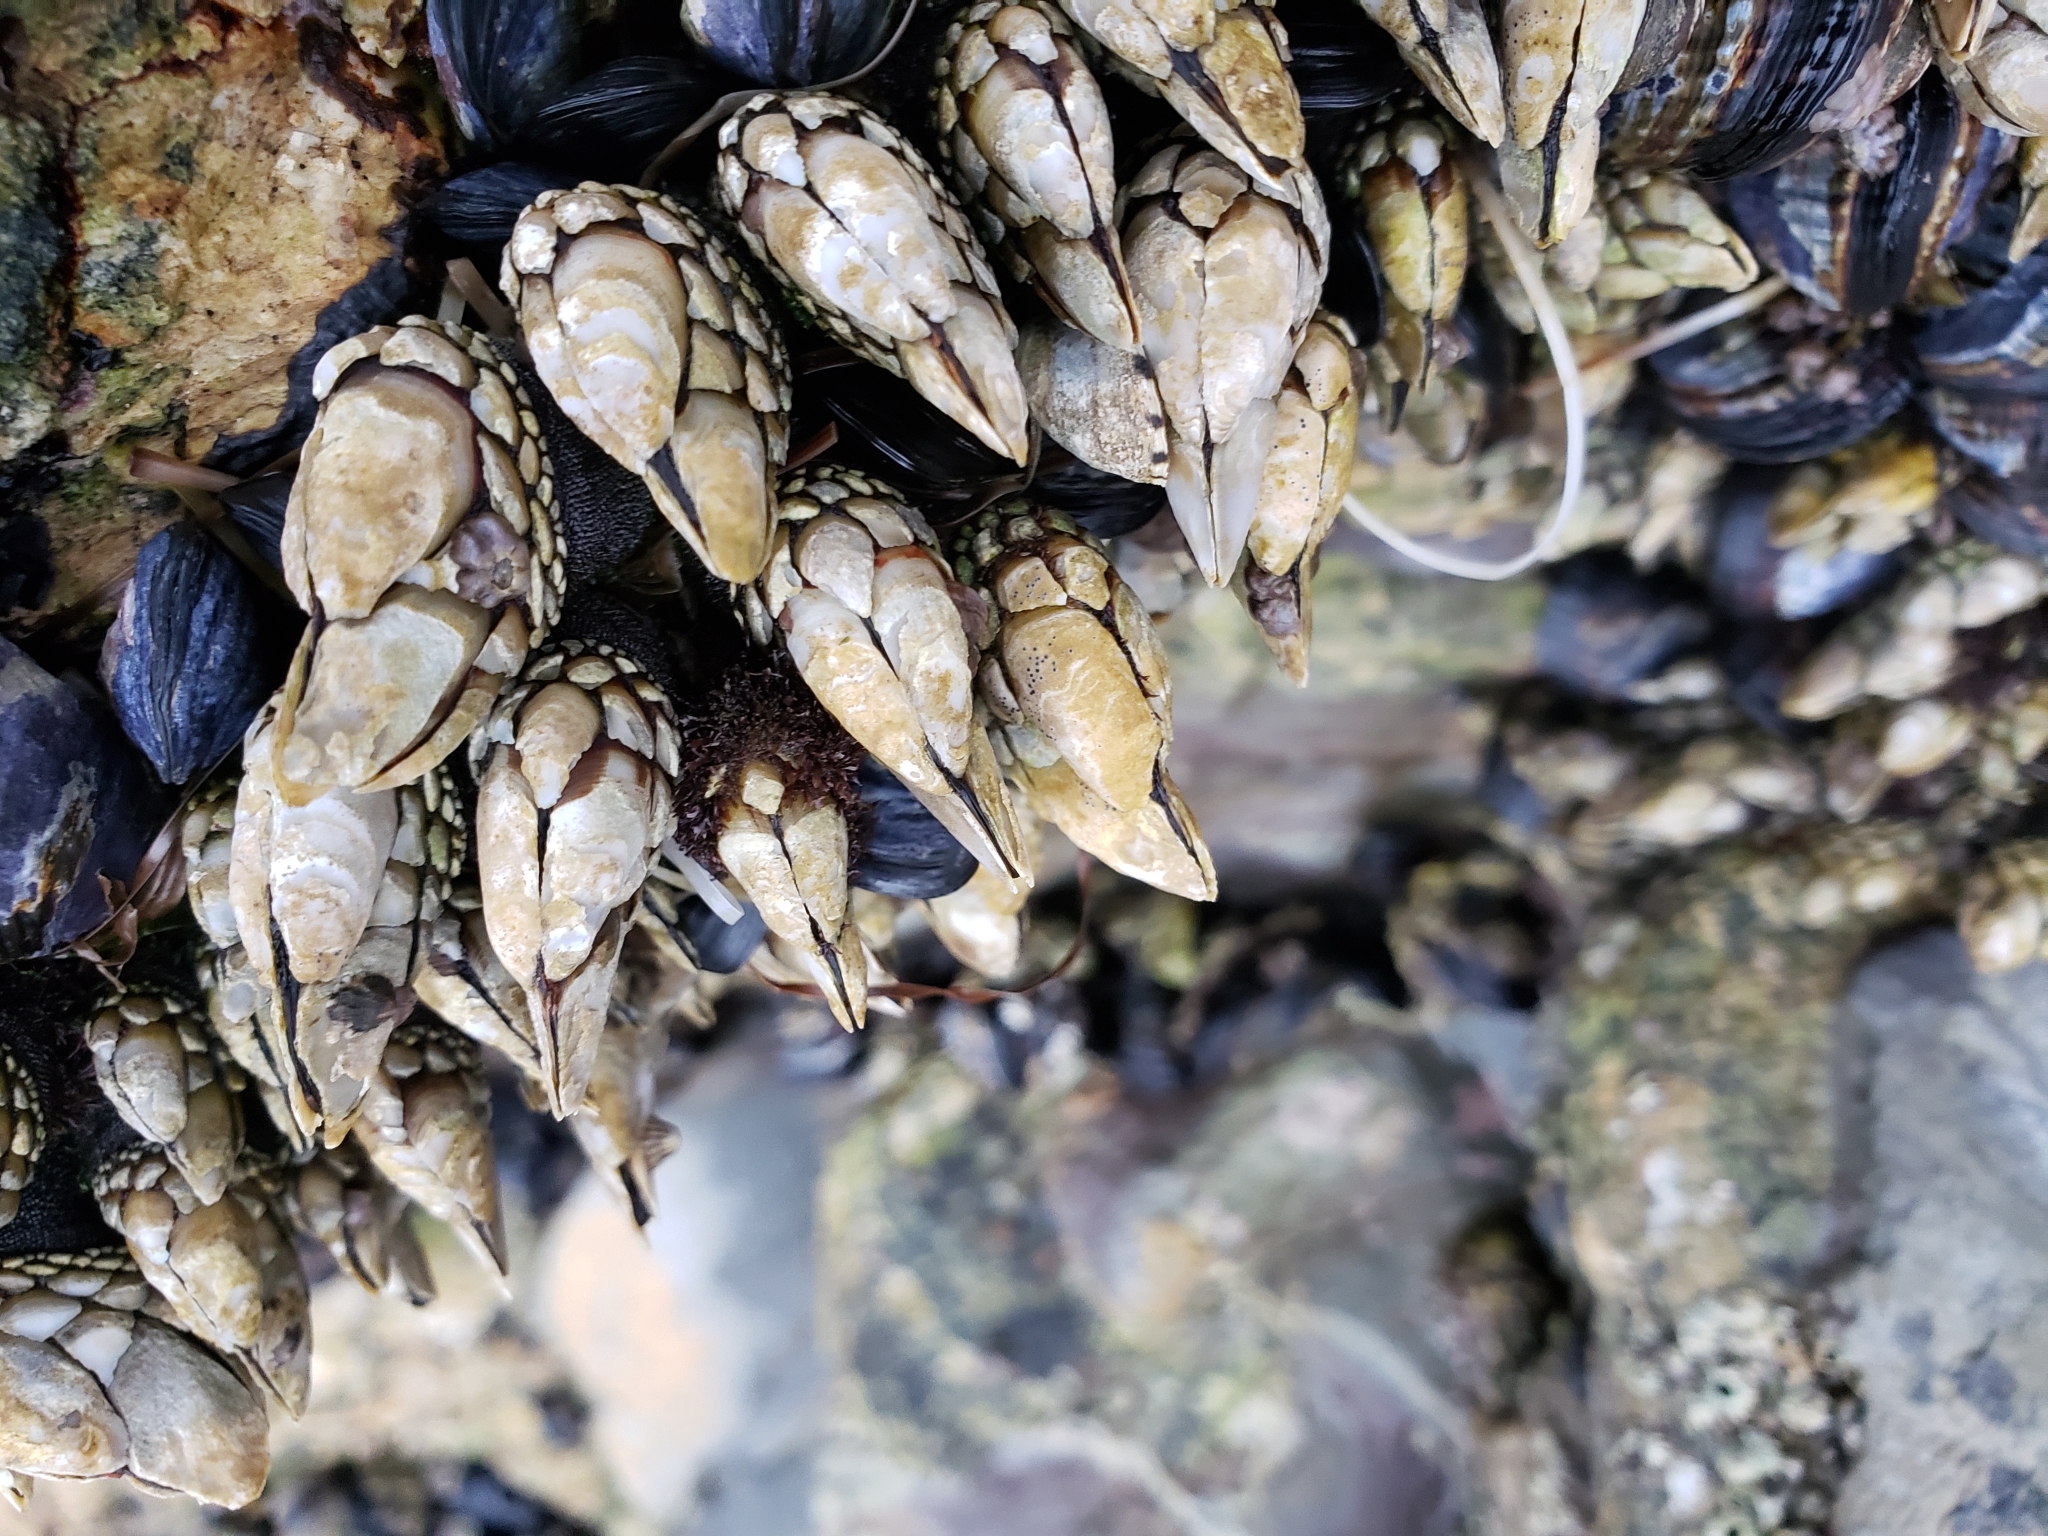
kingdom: Animalia
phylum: Arthropoda
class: Maxillopoda
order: Pedunculata
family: Pollicipedidae
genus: Pollicipes
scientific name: Pollicipes polymerus
